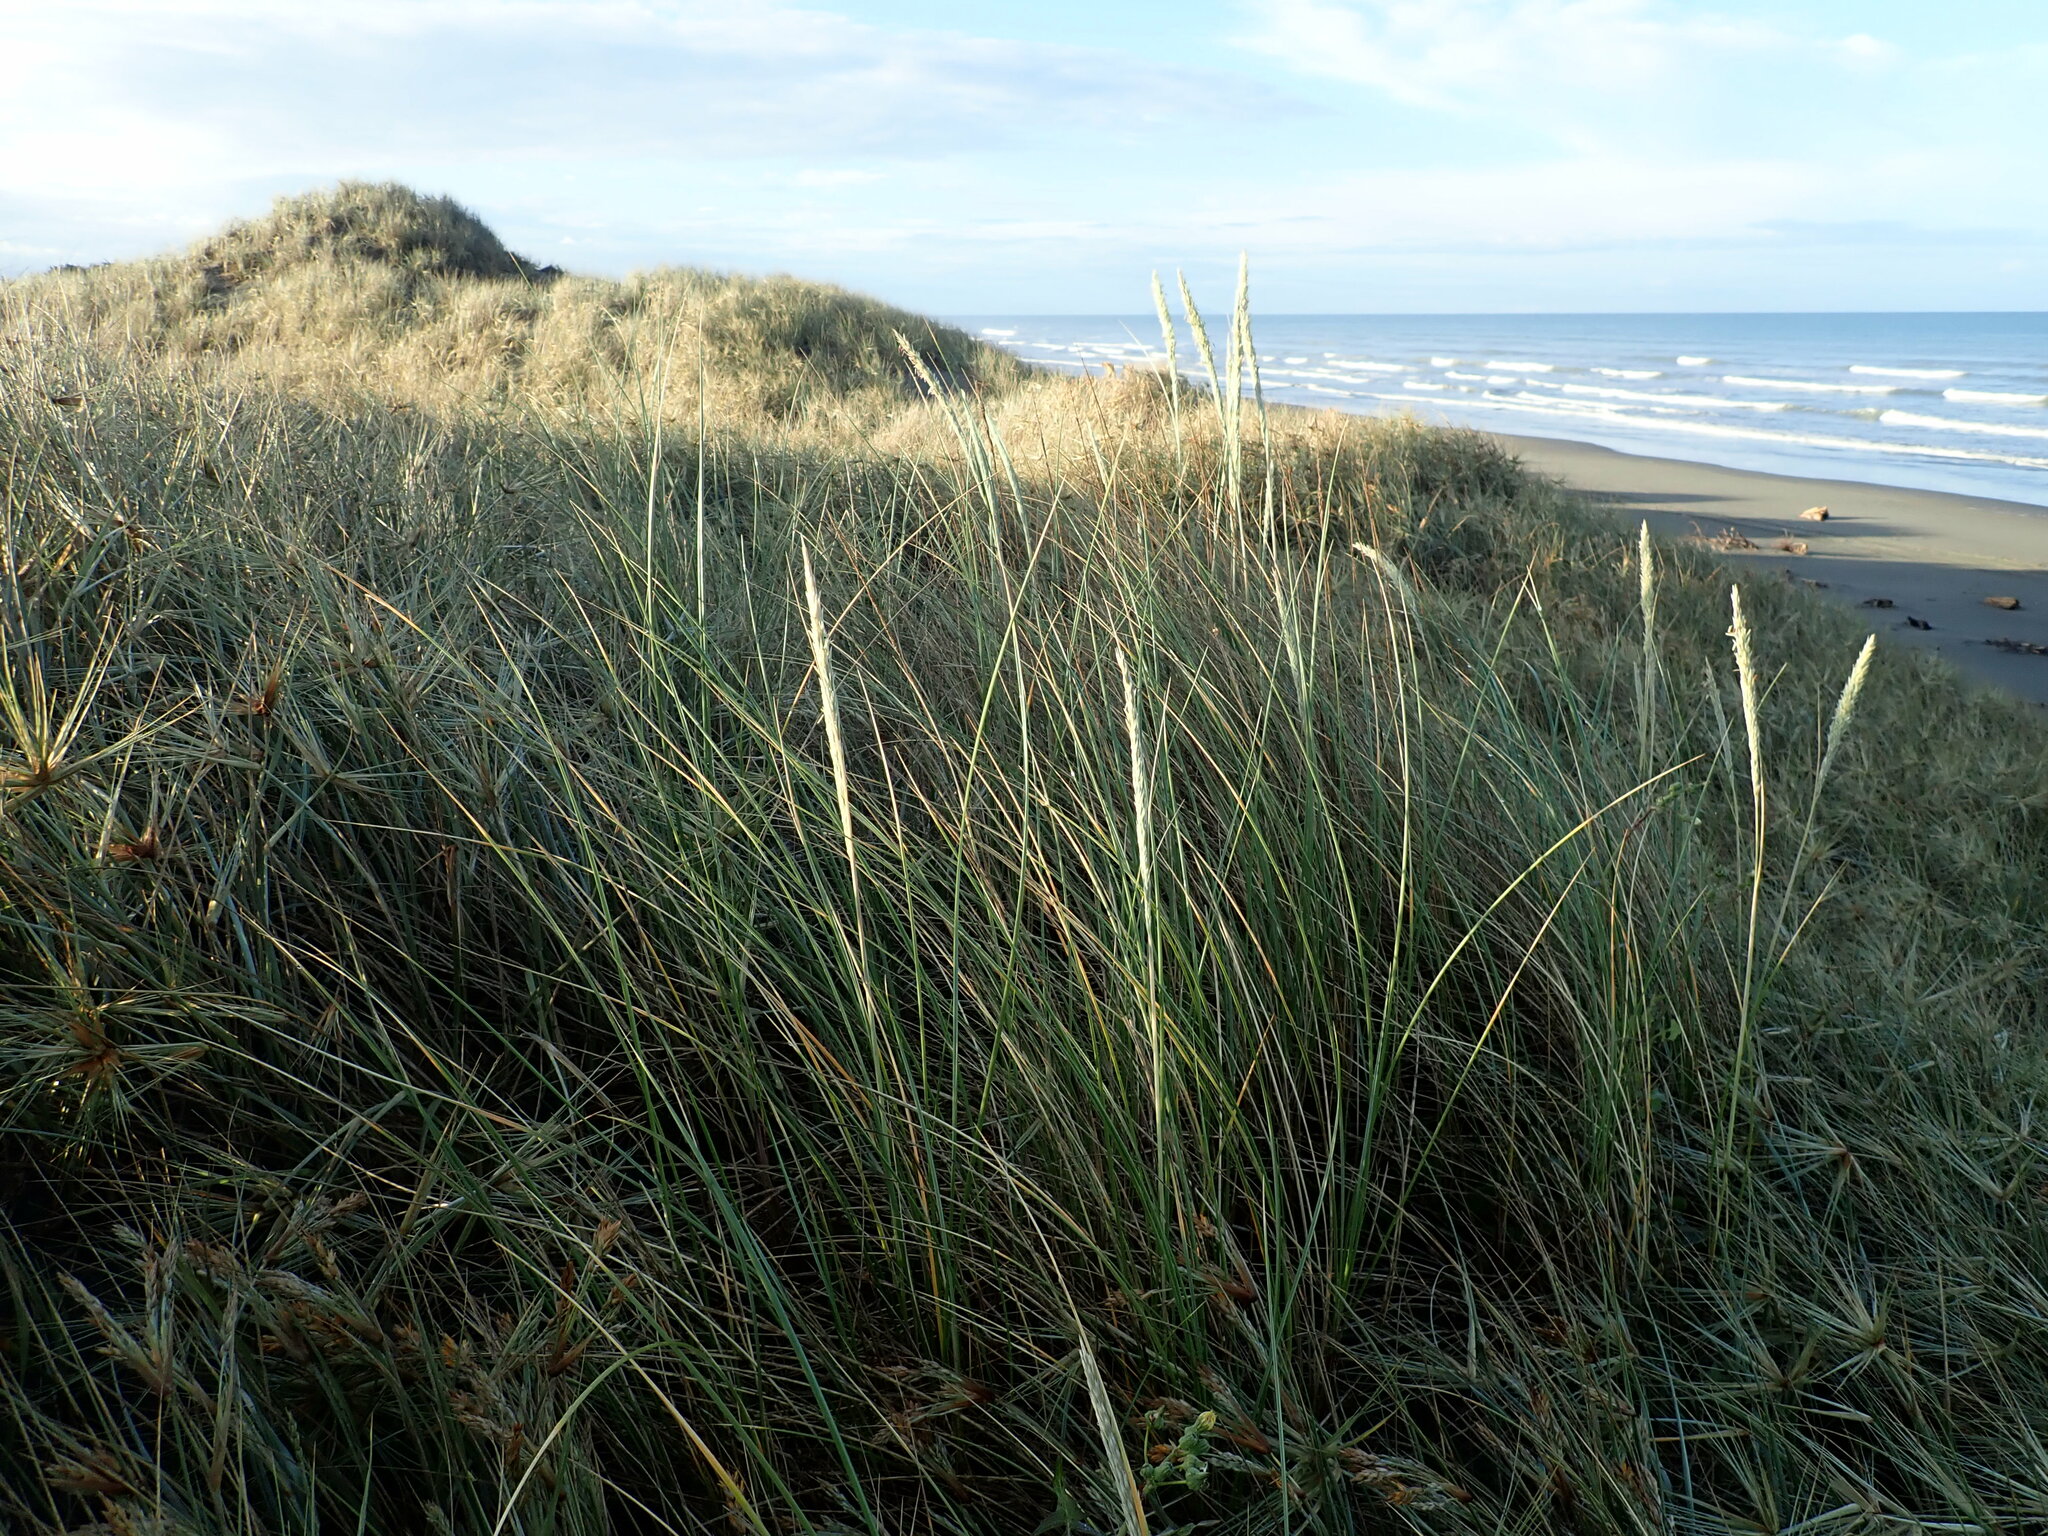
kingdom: Plantae
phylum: Tracheophyta
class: Liliopsida
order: Poales
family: Poaceae
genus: Calamagrostis
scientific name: Calamagrostis arenaria
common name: European beachgrass
